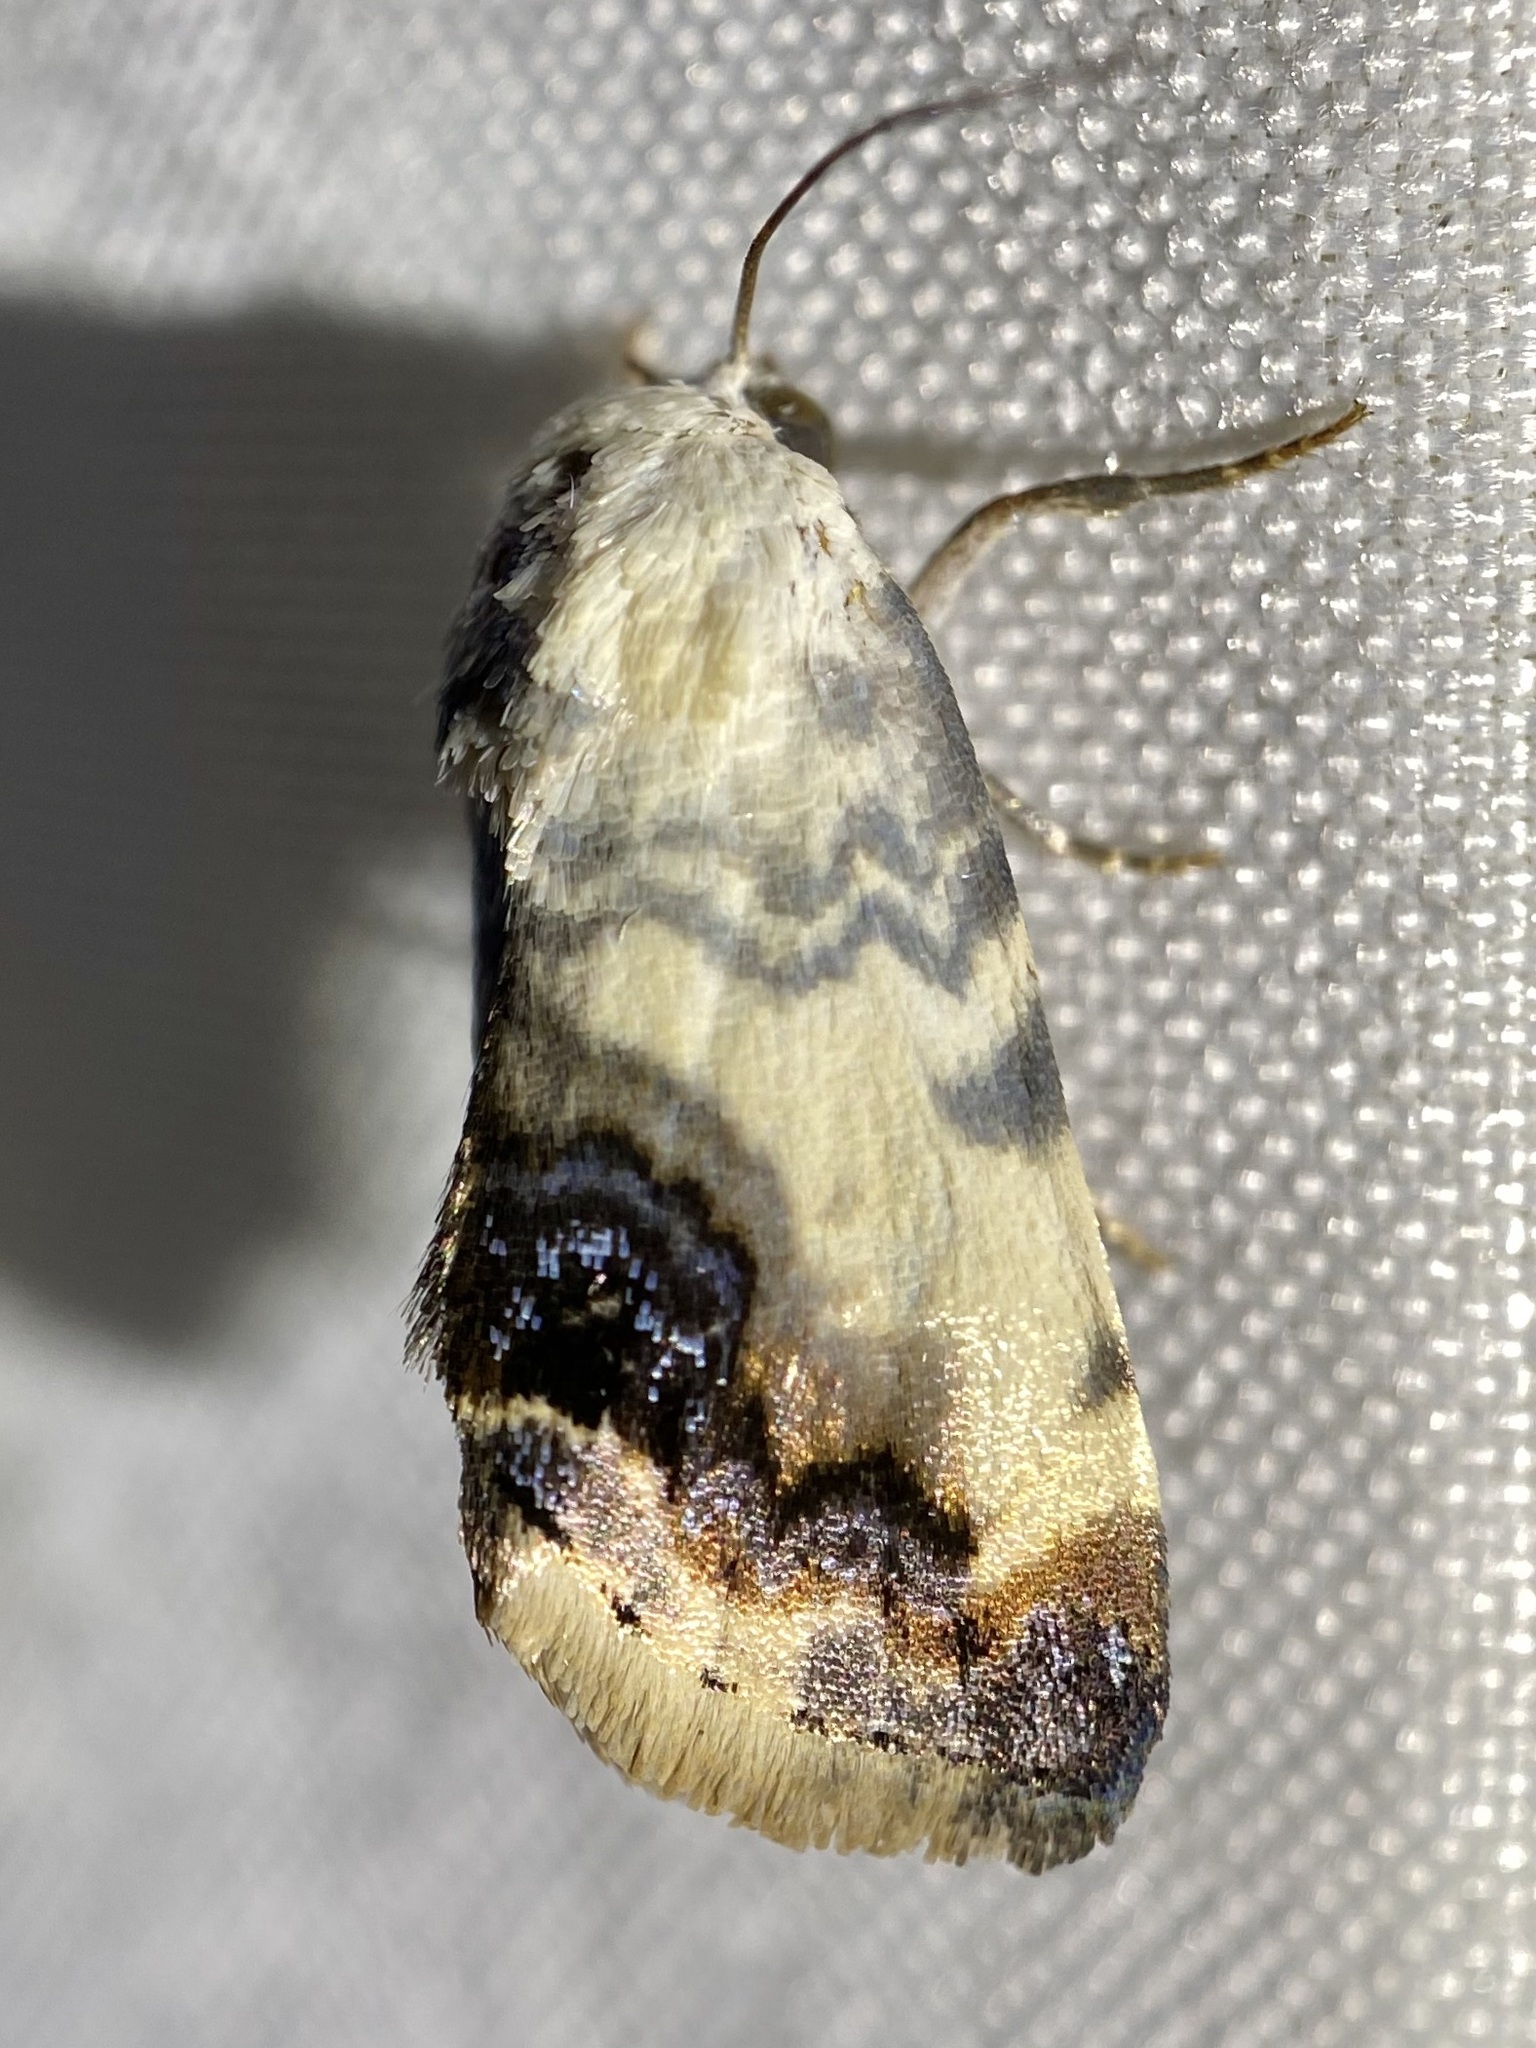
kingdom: Animalia
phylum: Arthropoda
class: Insecta
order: Lepidoptera
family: Noctuidae
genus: Acontia
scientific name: Acontia behrii
